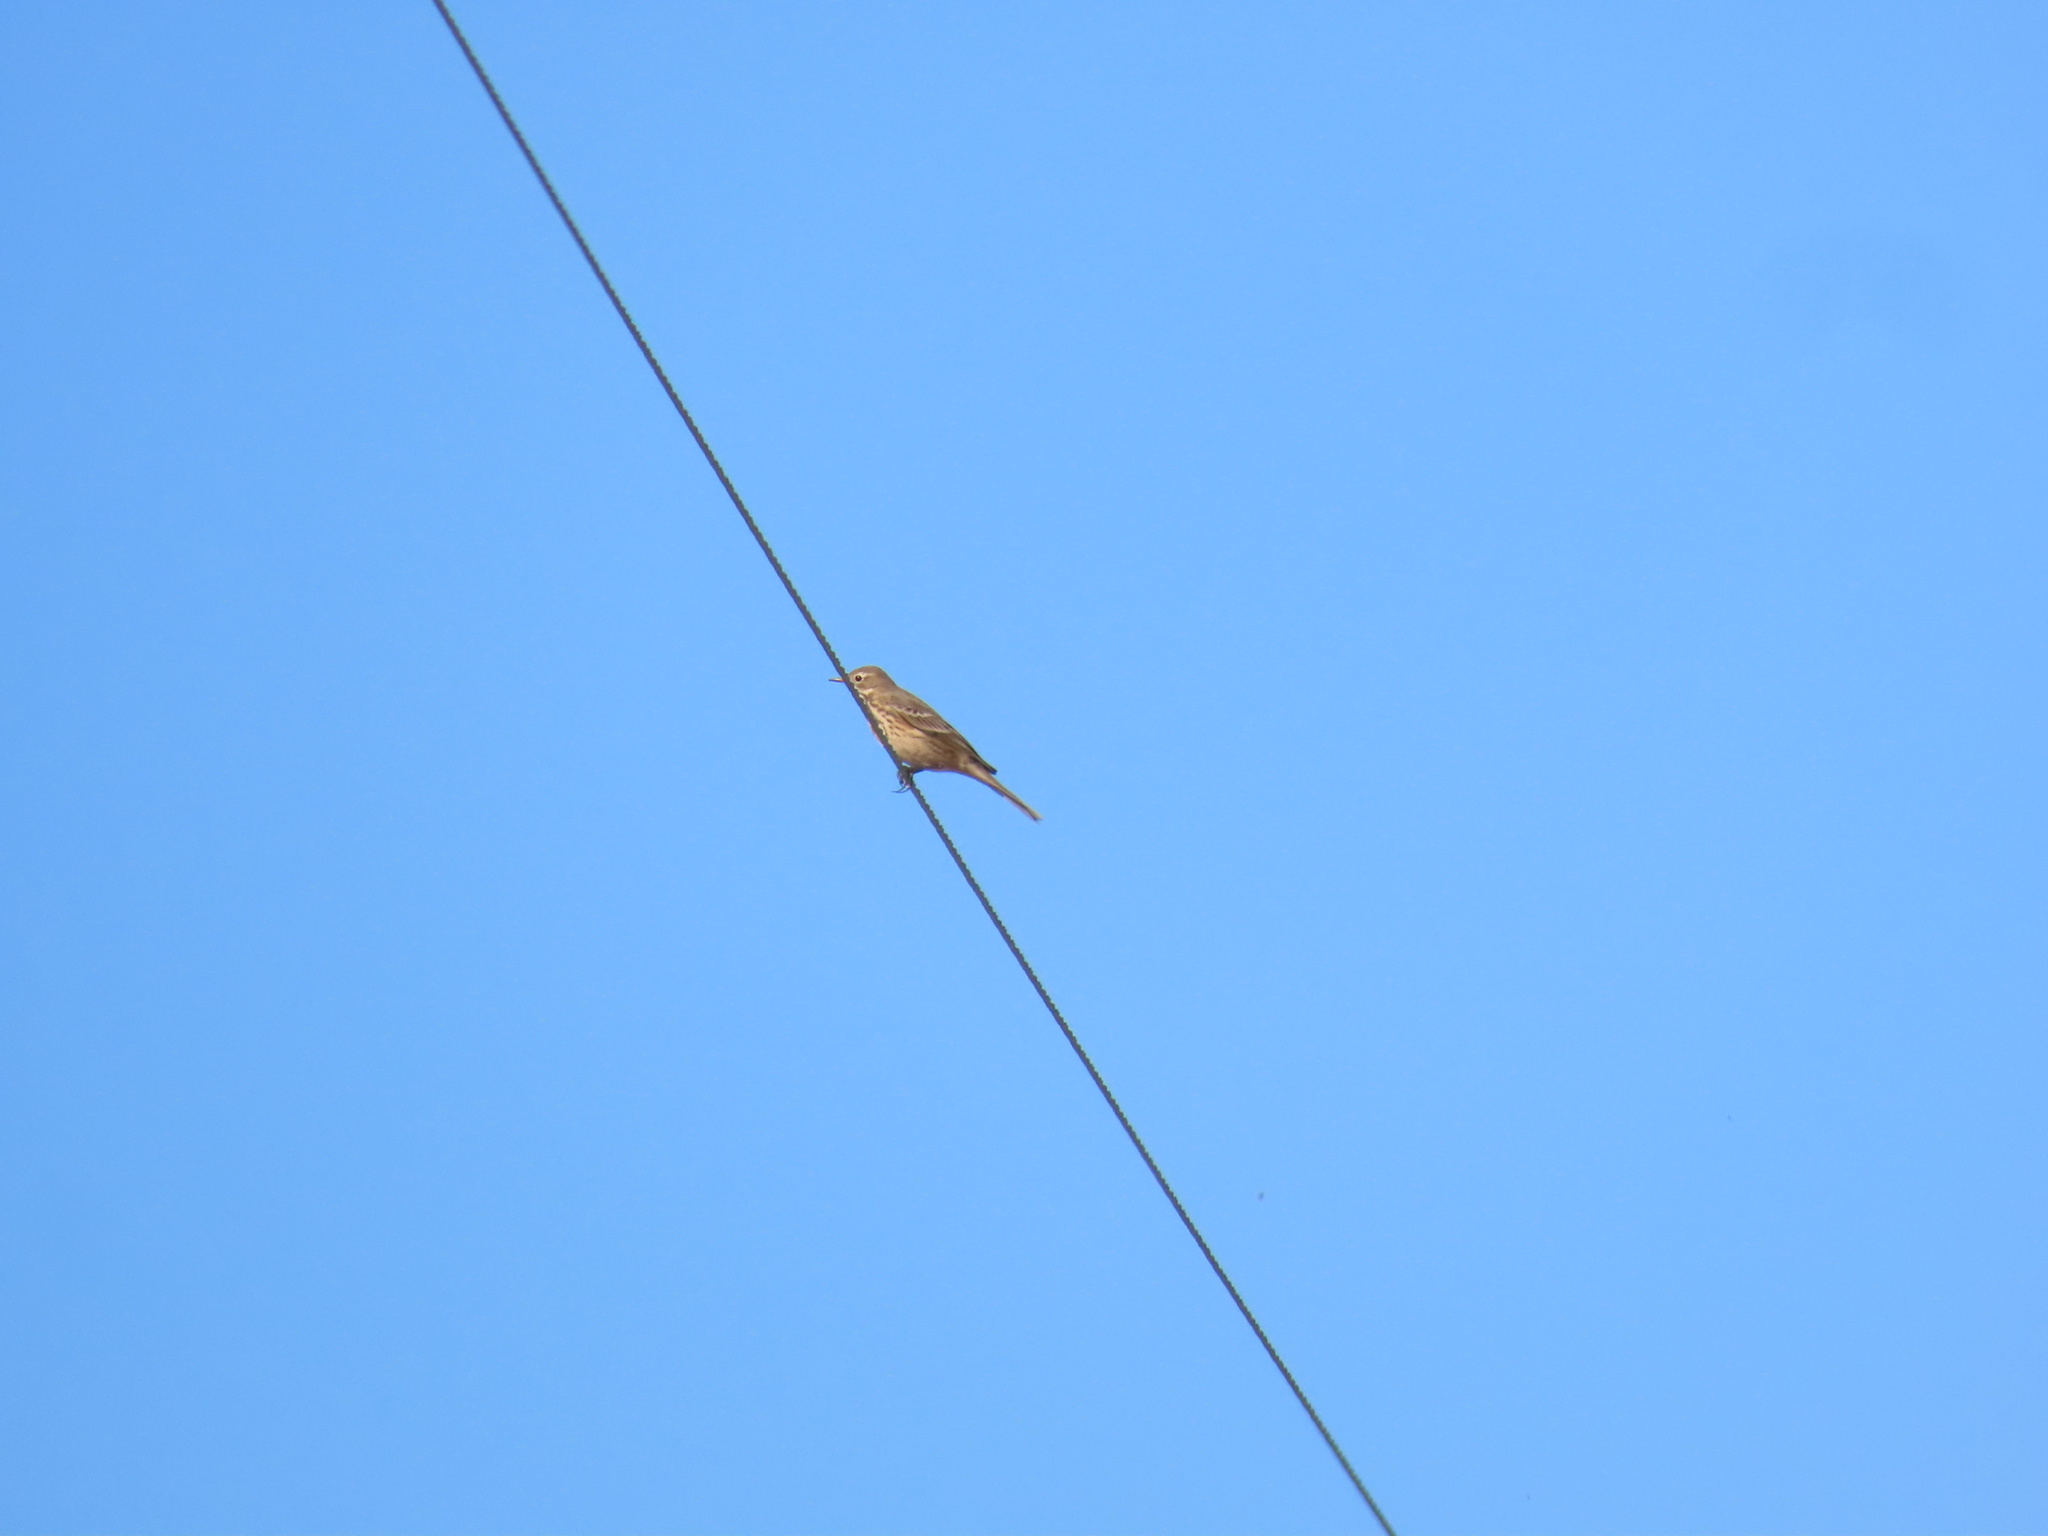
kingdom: Animalia
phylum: Chordata
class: Aves
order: Passeriformes
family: Motacillidae
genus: Anthus
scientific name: Anthus rubescens
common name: Buff-bellied pipit
